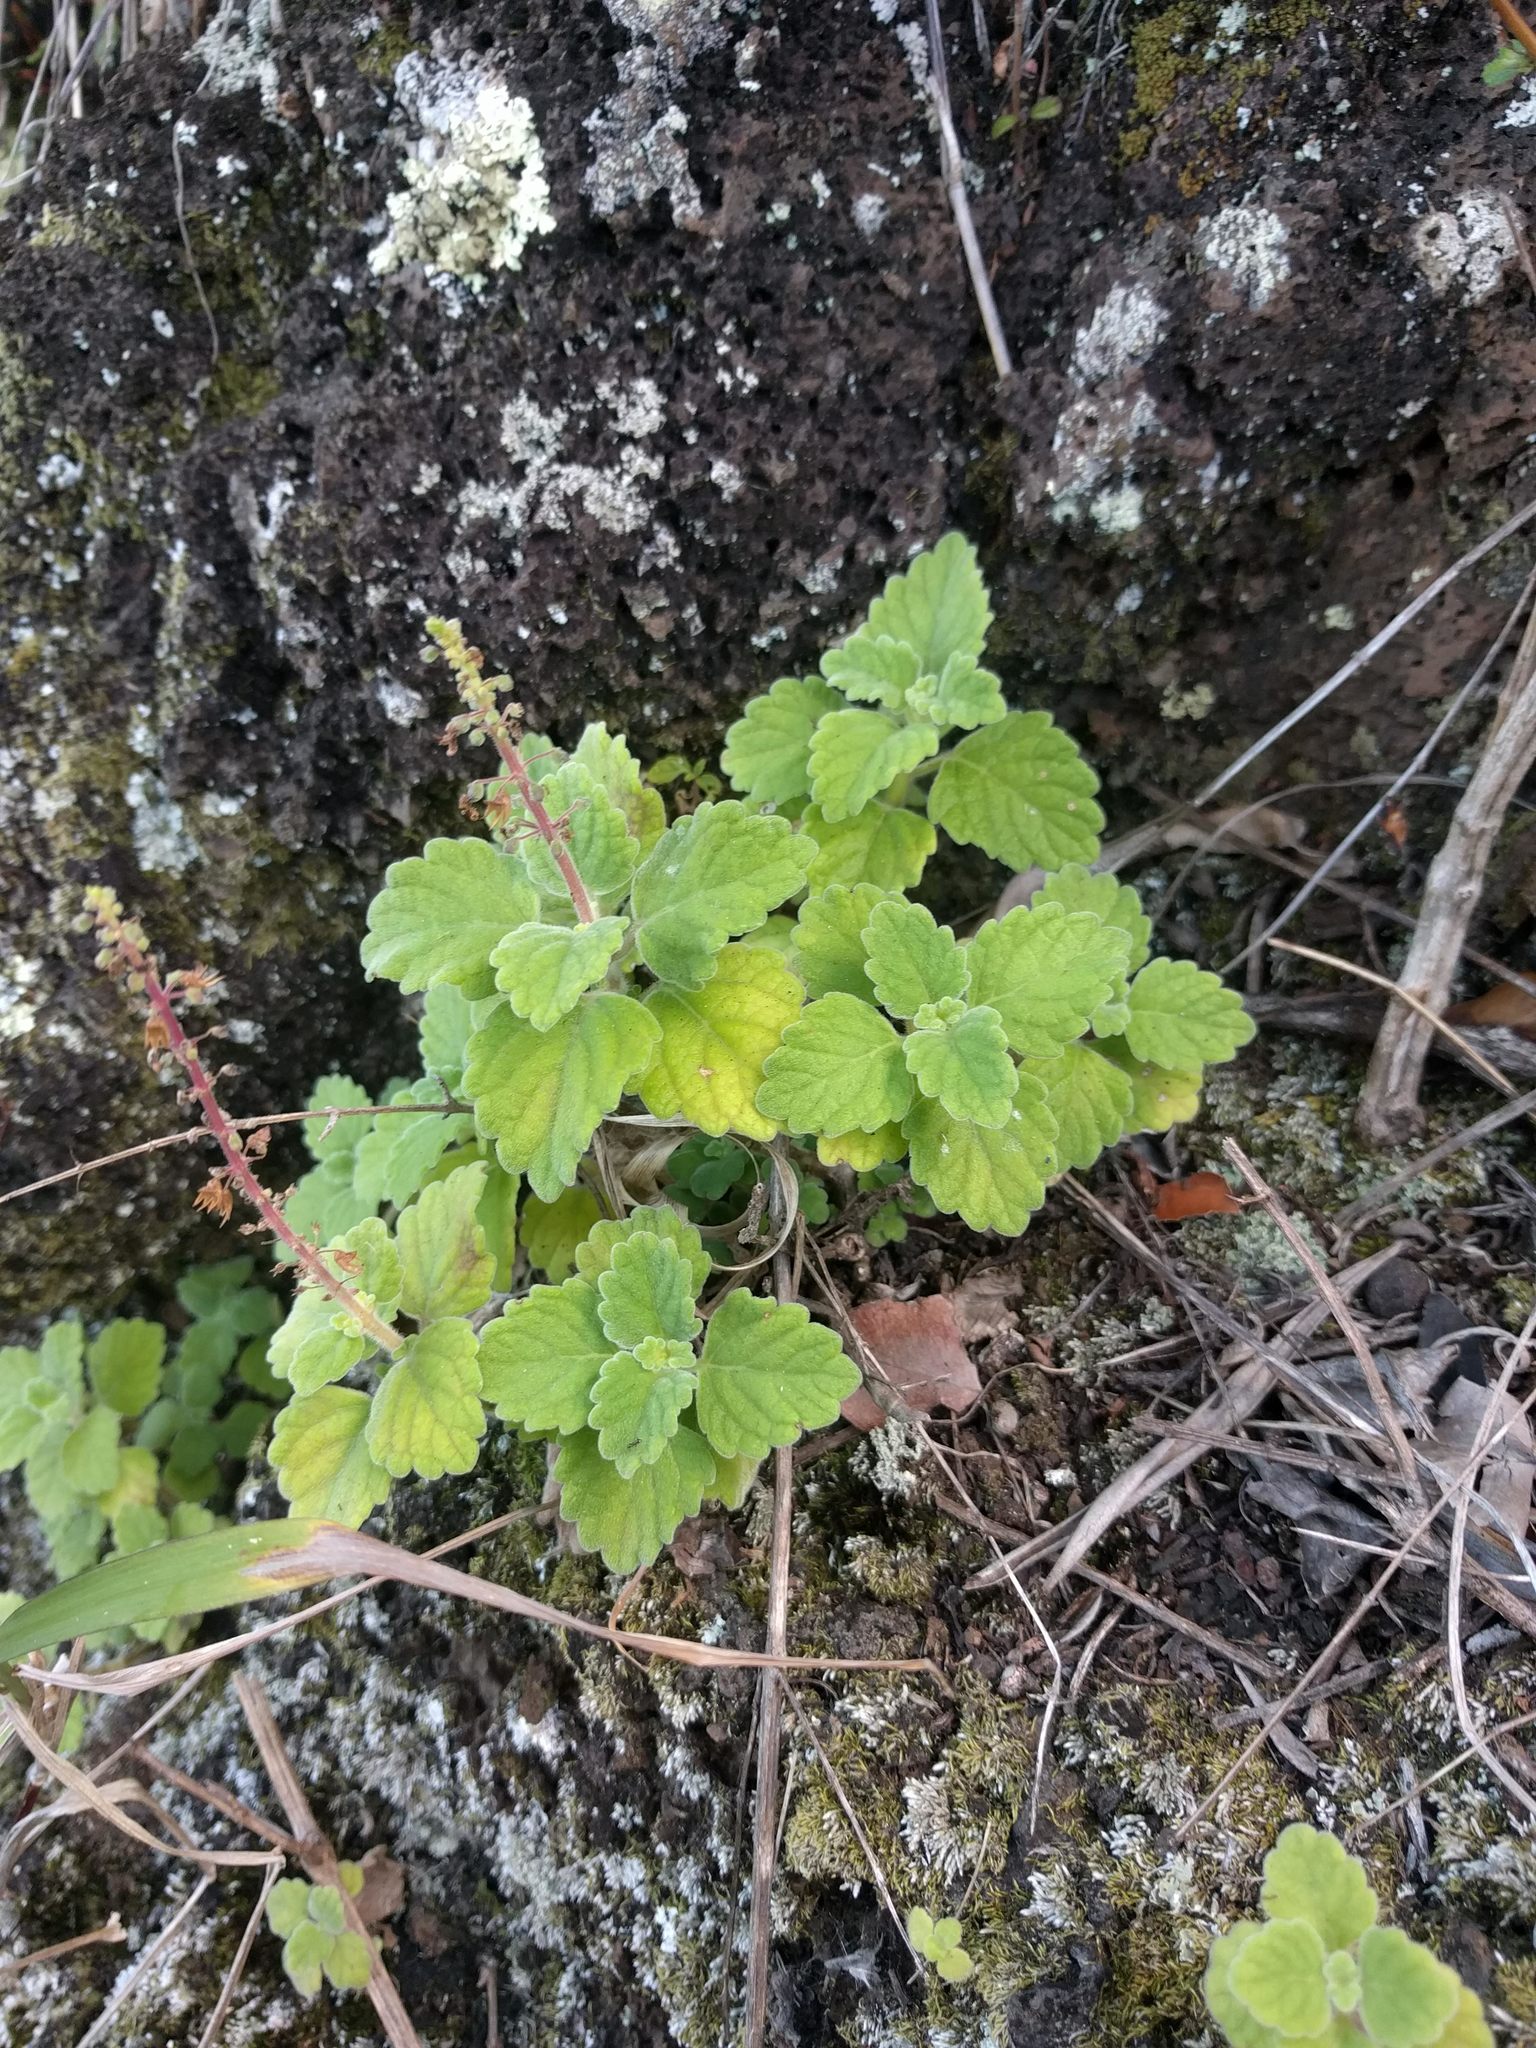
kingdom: Plantae
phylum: Tracheophyta
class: Magnoliopsida
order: Lamiales
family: Lamiaceae
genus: Coleus
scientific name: Coleus australis
